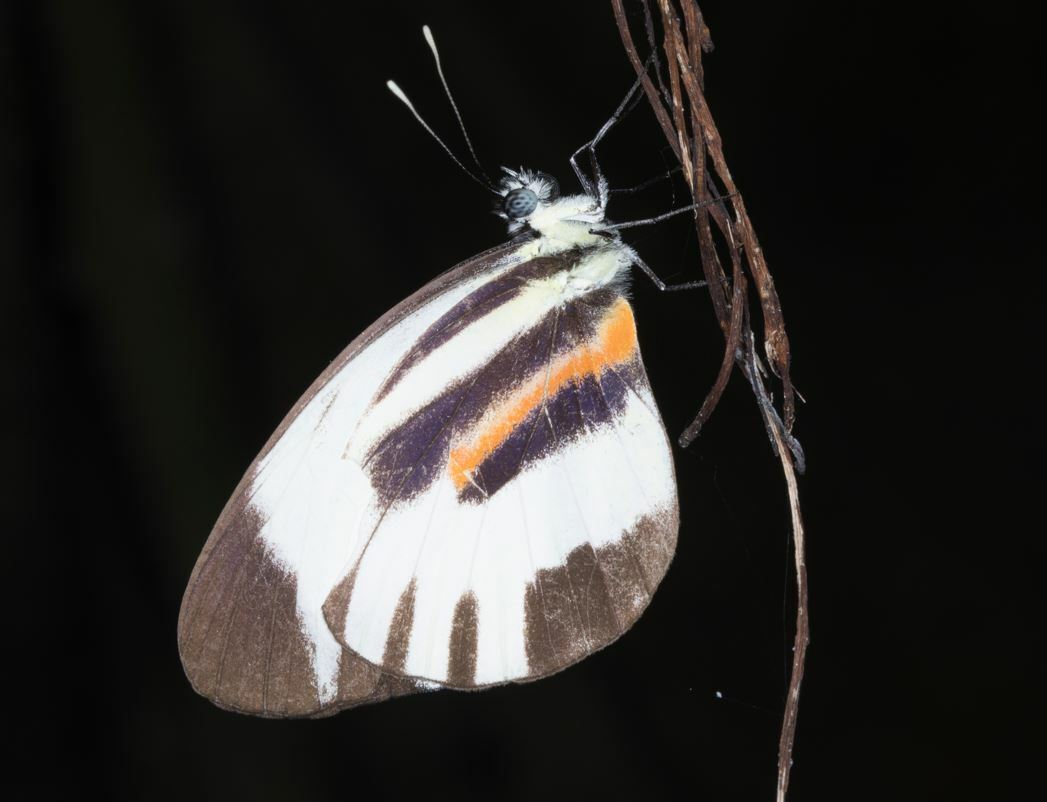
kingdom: Animalia
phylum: Arthropoda
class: Insecta
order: Lepidoptera
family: Pieridae
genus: Perrhybris
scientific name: Perrhybris pamela
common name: Chiapas white
